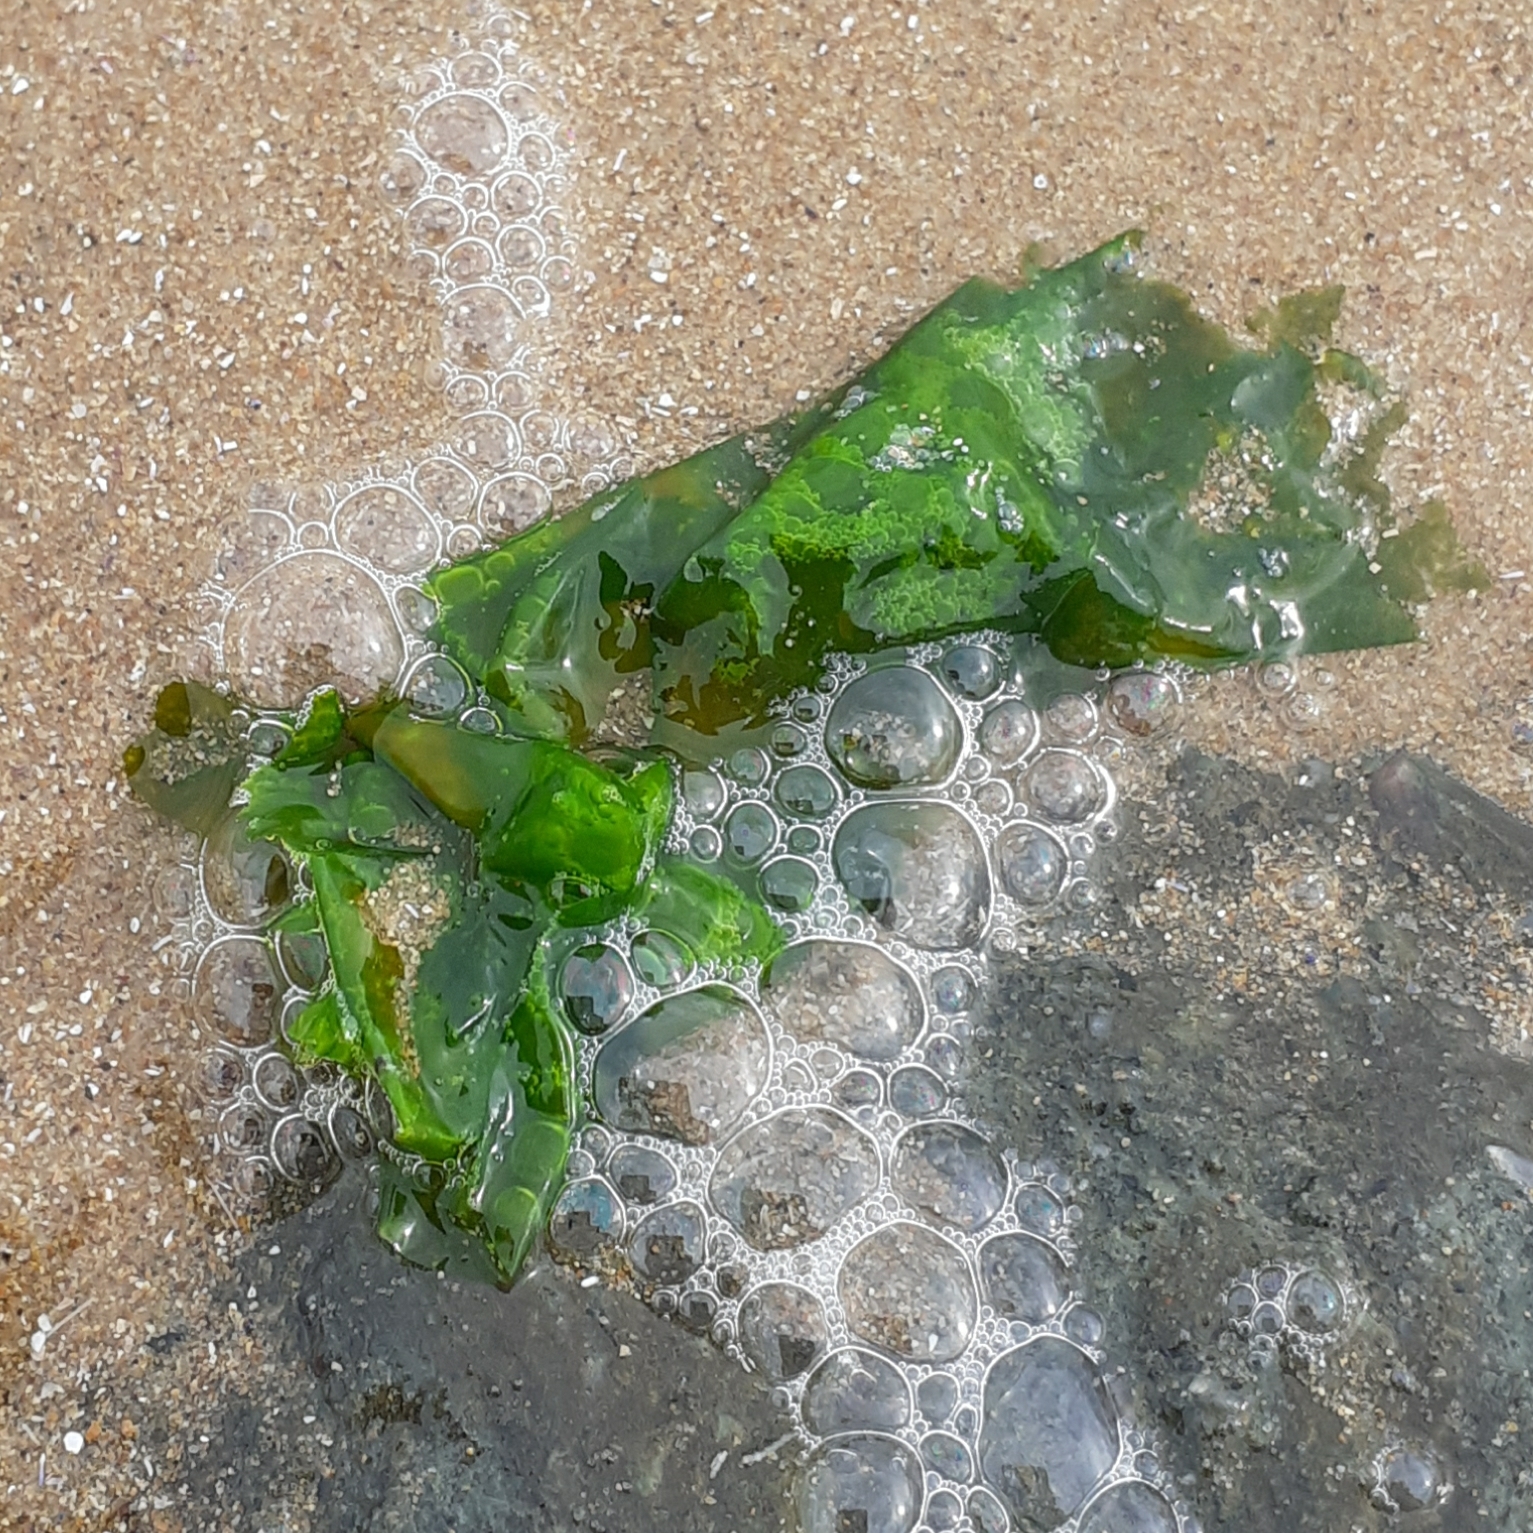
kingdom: Plantae
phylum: Chlorophyta
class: Ulvophyceae
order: Ulvales
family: Ulvaceae
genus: Ulva
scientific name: Ulva lactuca
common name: Sea lettuce
